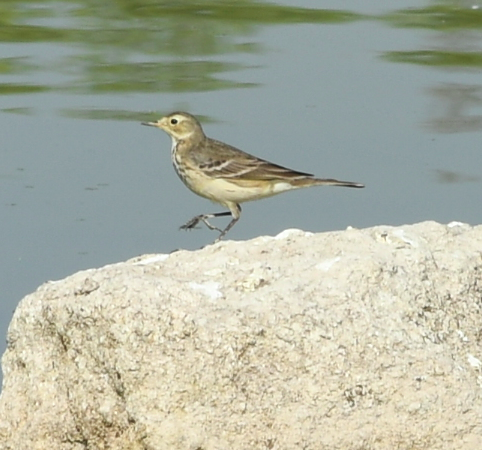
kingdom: Animalia
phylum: Chordata
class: Aves
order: Passeriformes
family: Motacillidae
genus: Anthus
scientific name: Anthus rubescens
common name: Buff-bellied pipit
